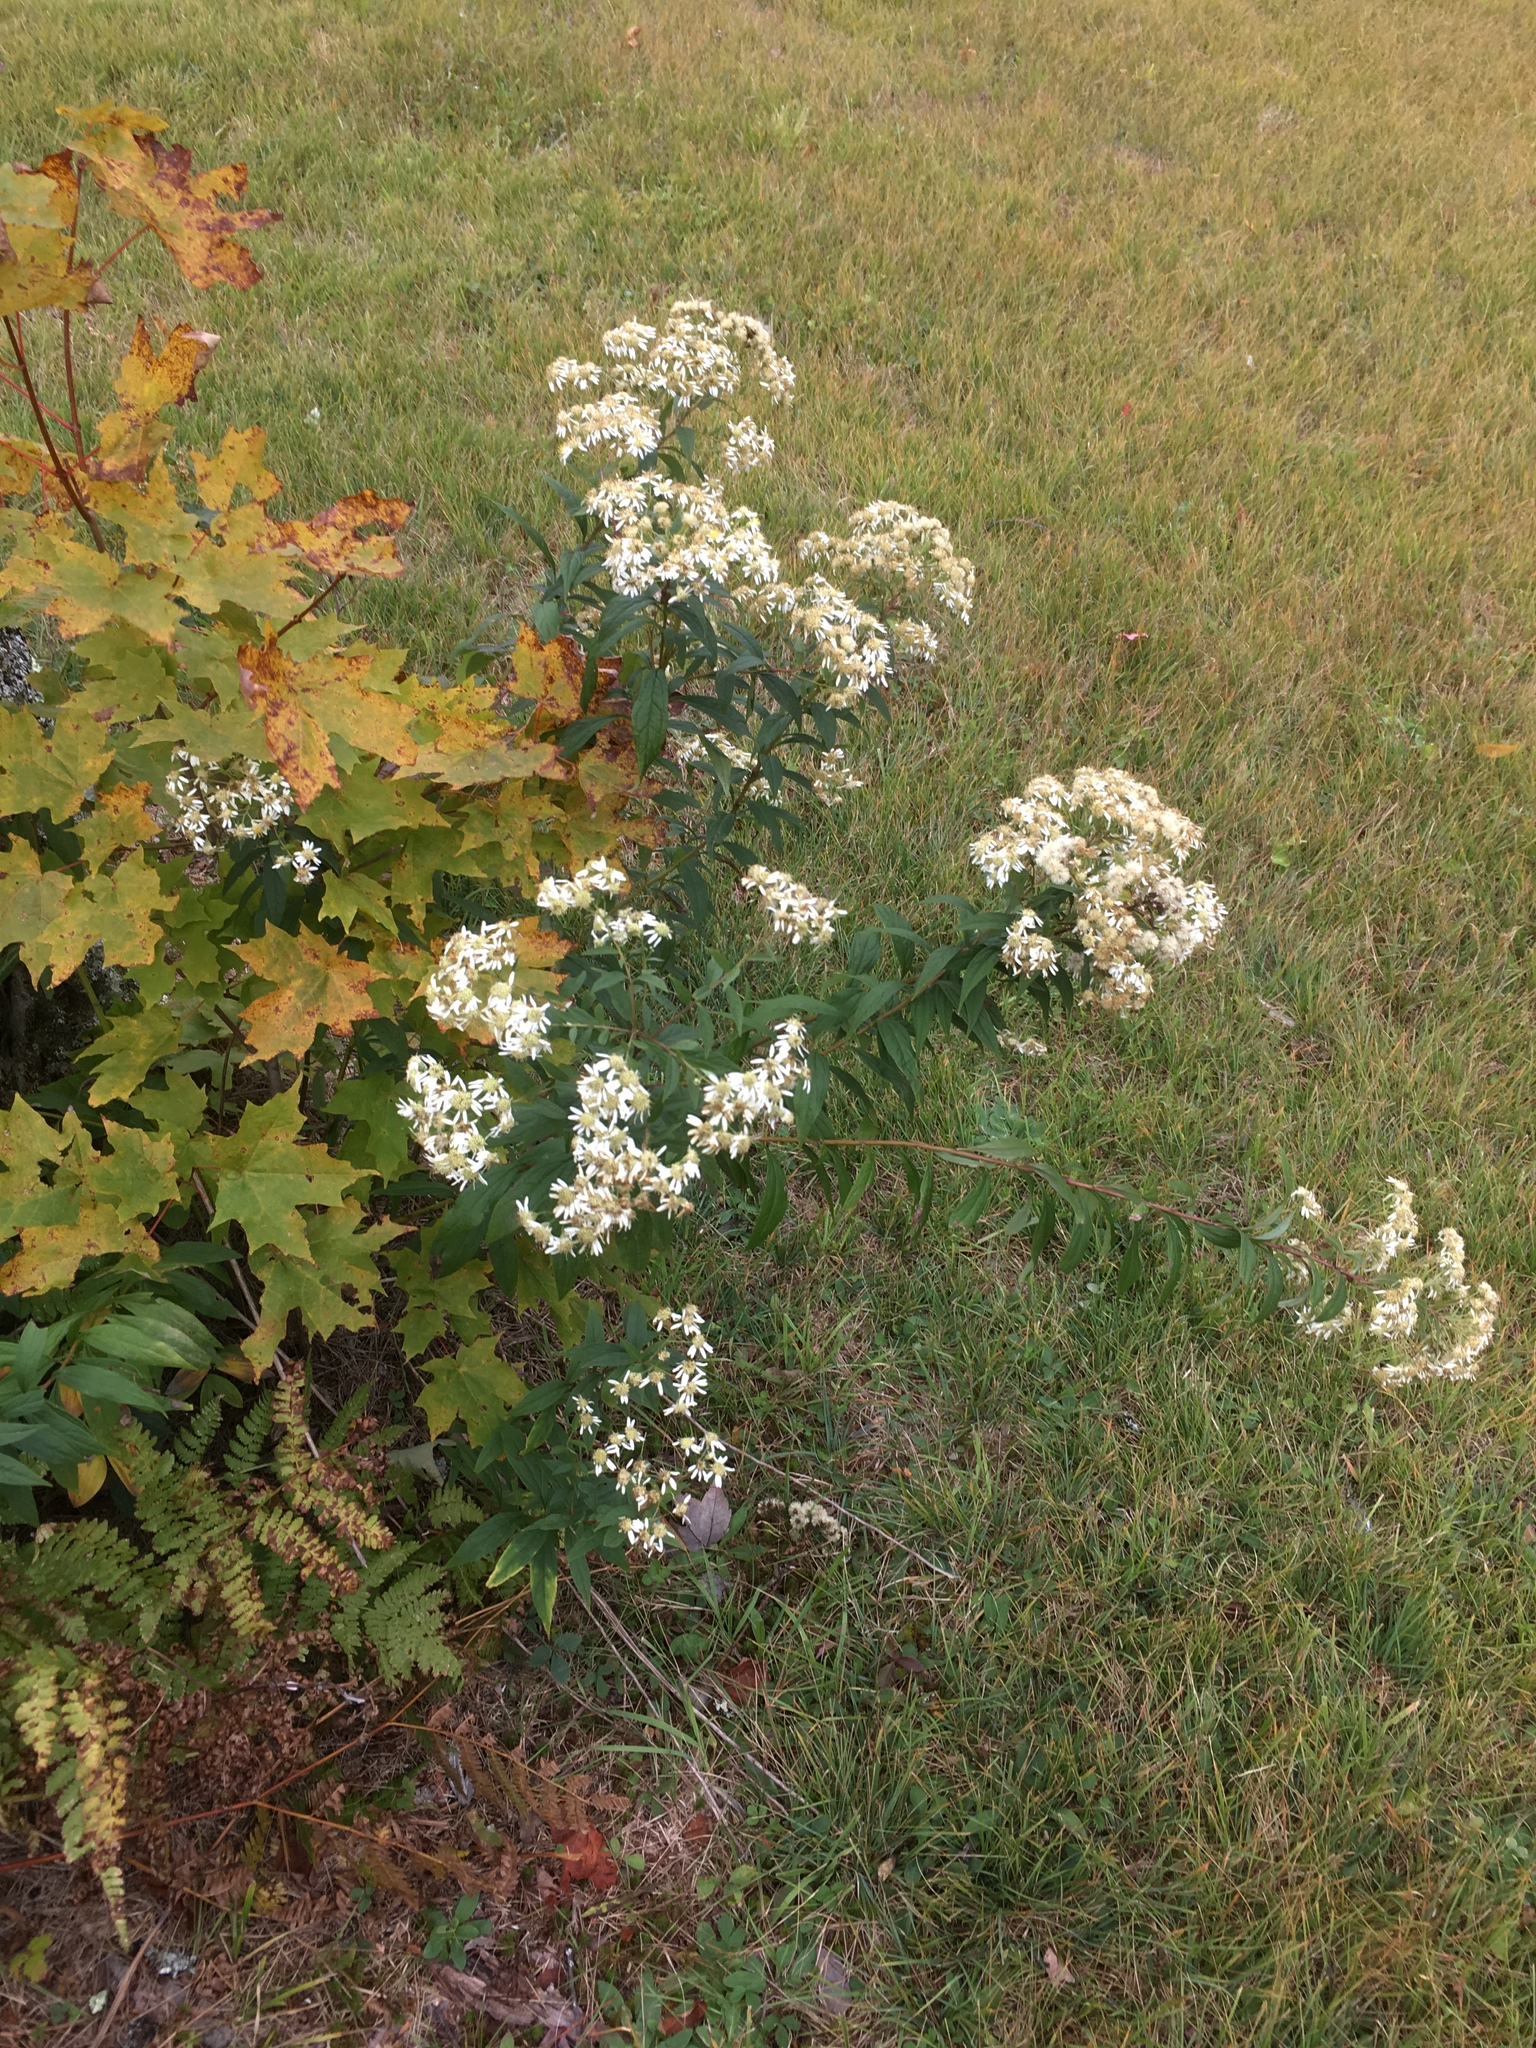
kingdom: Plantae
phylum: Tracheophyta
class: Magnoliopsida
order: Asterales
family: Asteraceae
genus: Doellingeria
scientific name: Doellingeria umbellata
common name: Flat-top white aster
